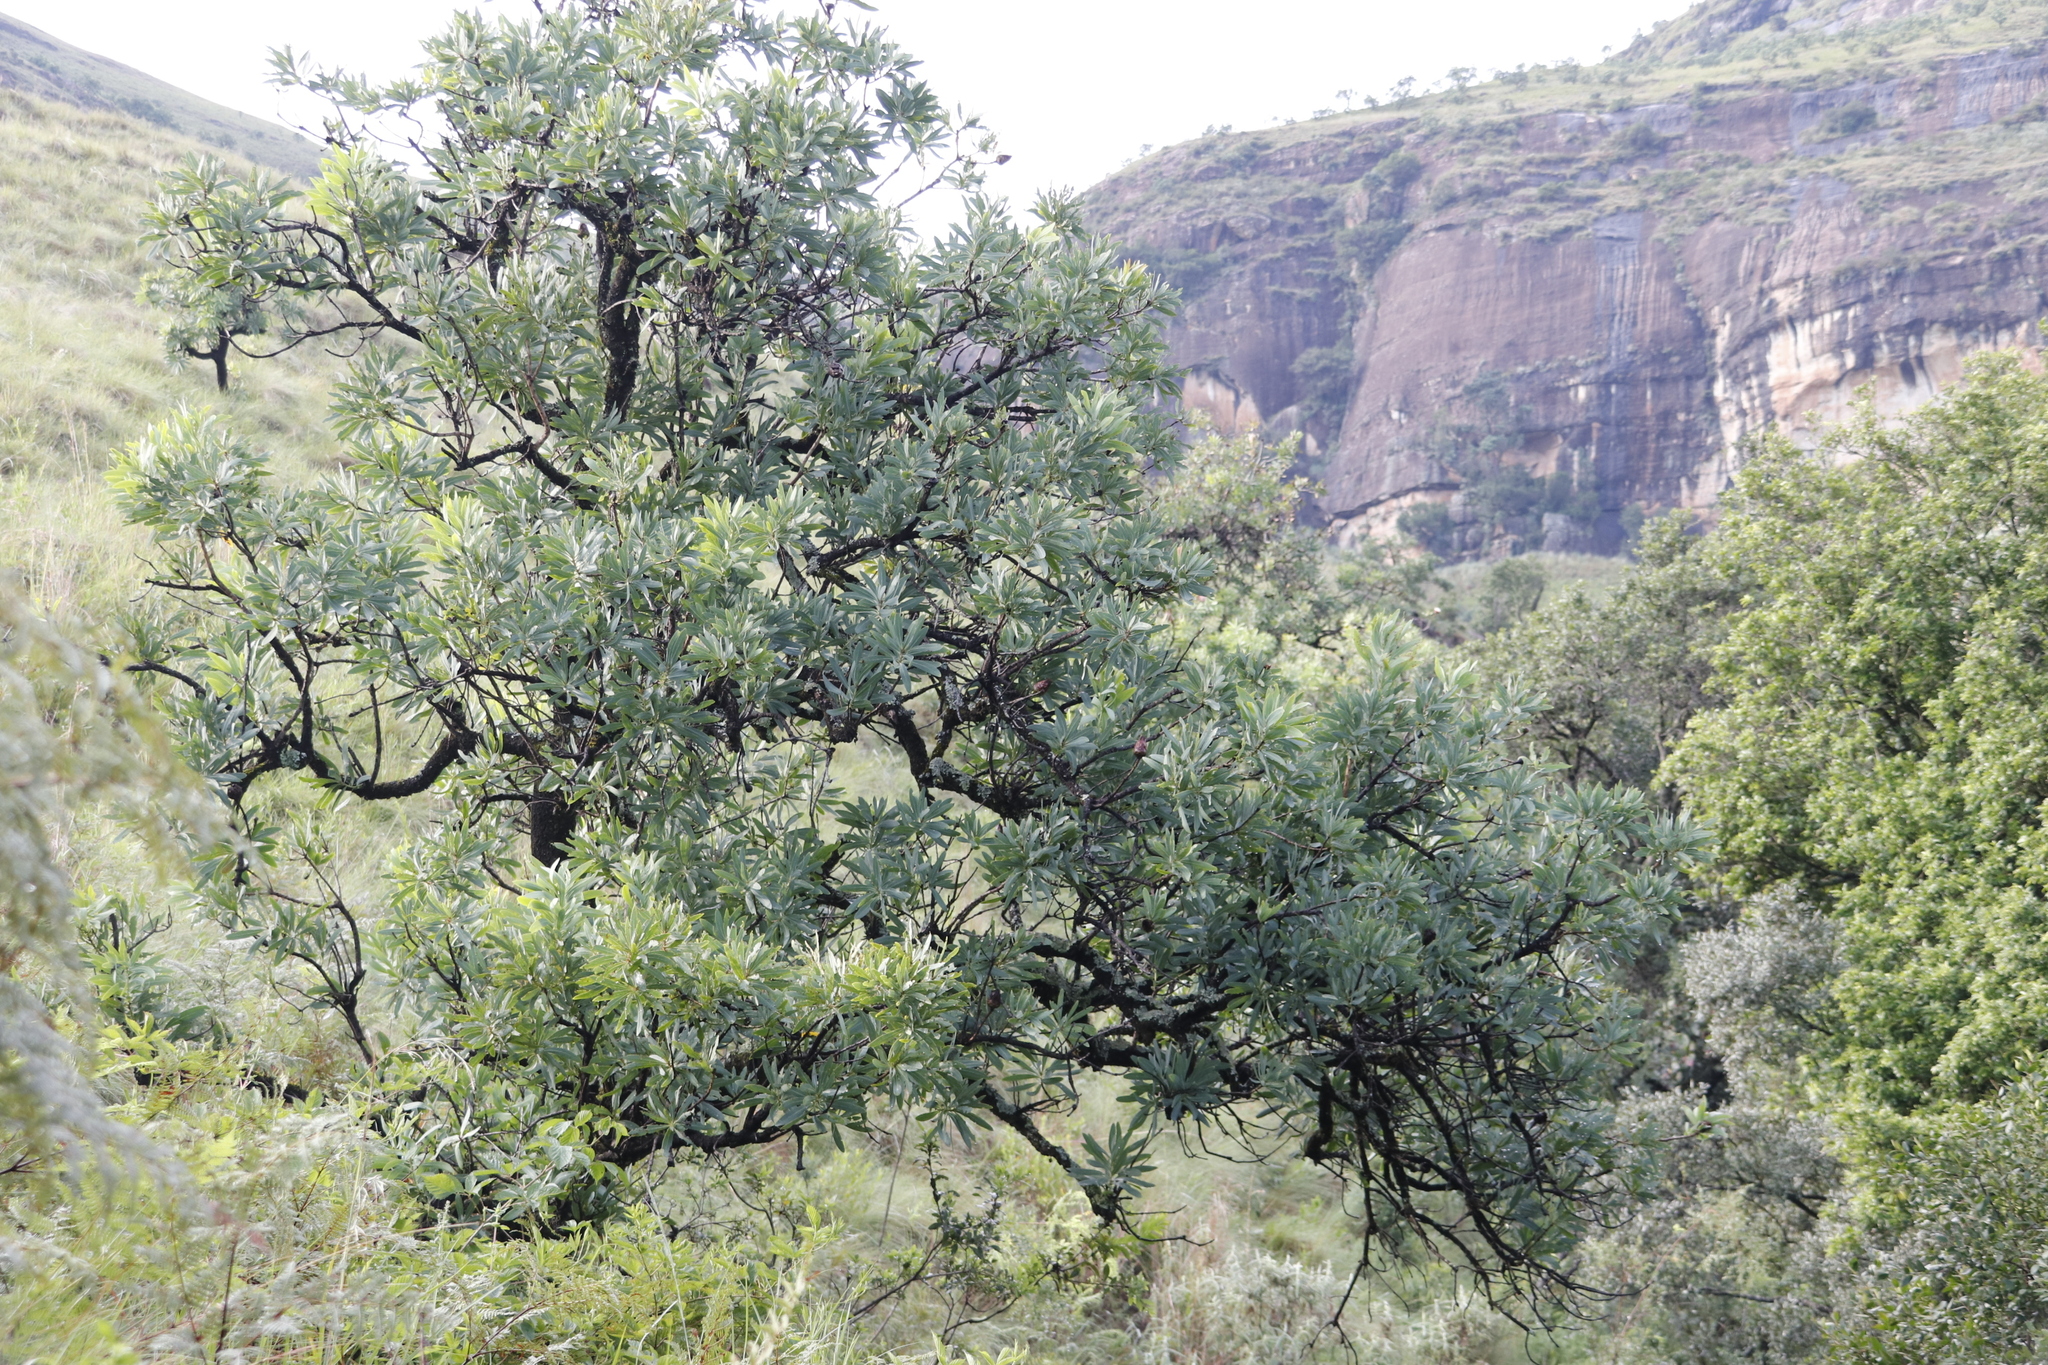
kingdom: Plantae
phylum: Tracheophyta
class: Magnoliopsida
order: Proteales
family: Proteaceae
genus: Protea
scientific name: Protea caffra
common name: Common sugarbush
